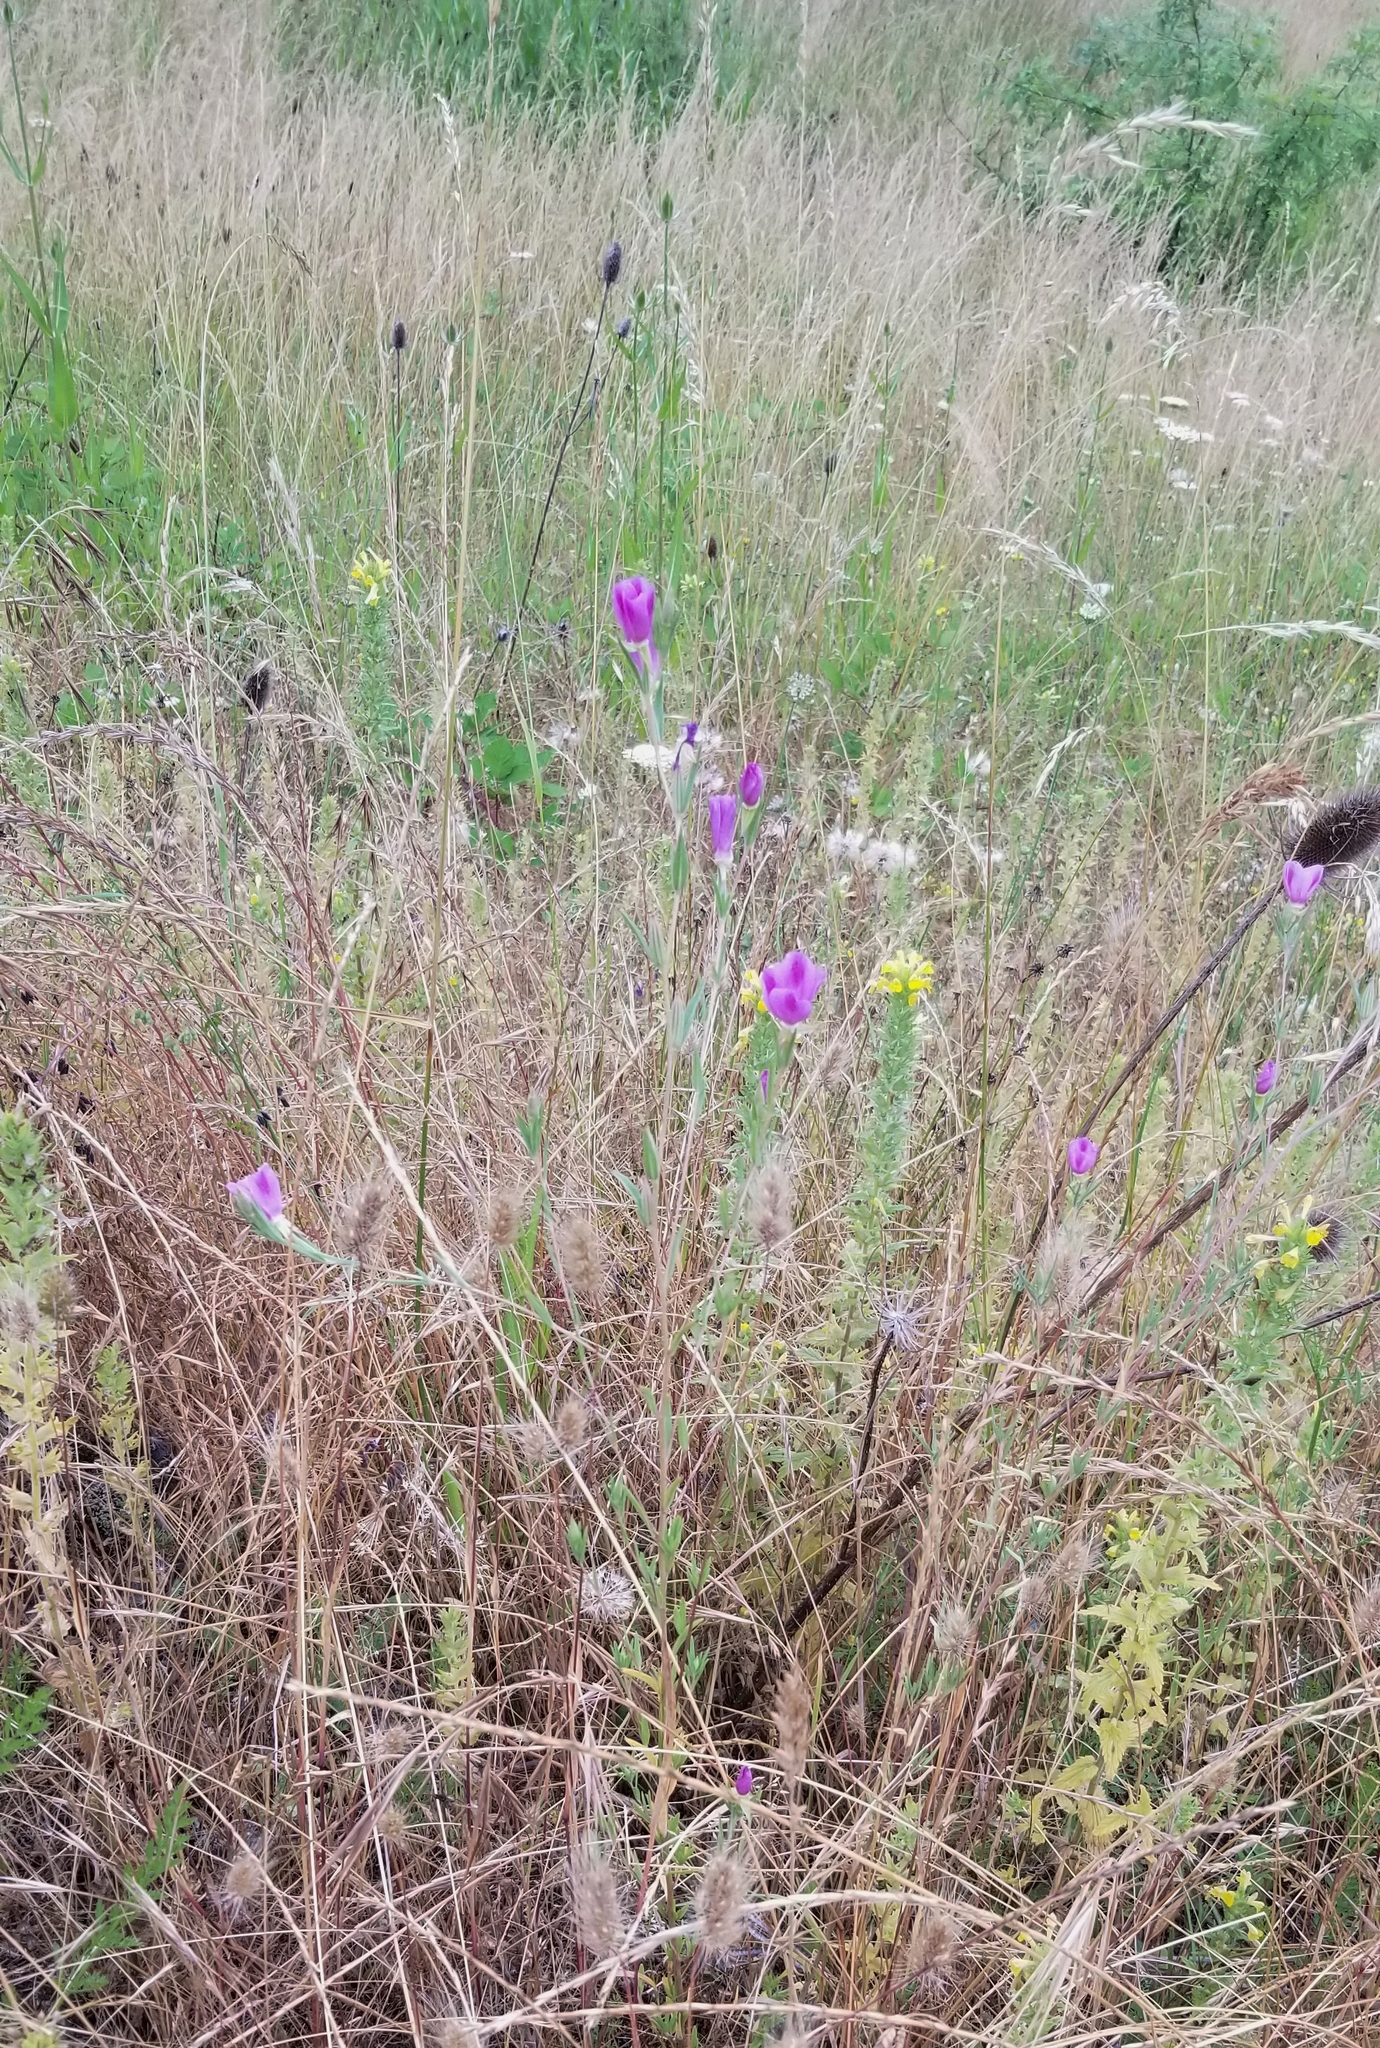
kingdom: Plantae
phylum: Tracheophyta
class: Magnoliopsida
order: Myrtales
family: Onagraceae
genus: Clarkia
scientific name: Clarkia purpurea
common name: Purple clarkia
